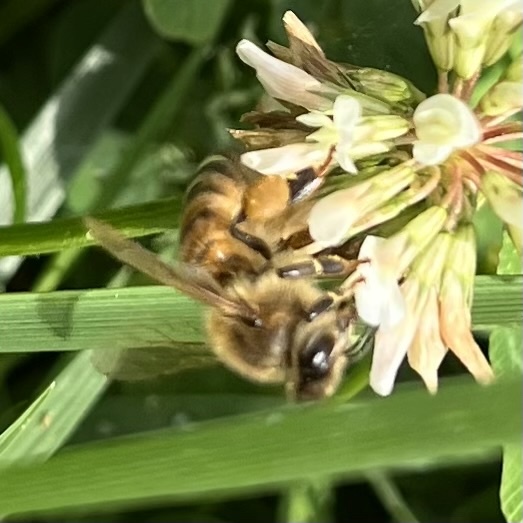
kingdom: Animalia
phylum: Arthropoda
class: Insecta
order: Hymenoptera
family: Apidae
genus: Apis
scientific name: Apis mellifera
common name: Honey bee
